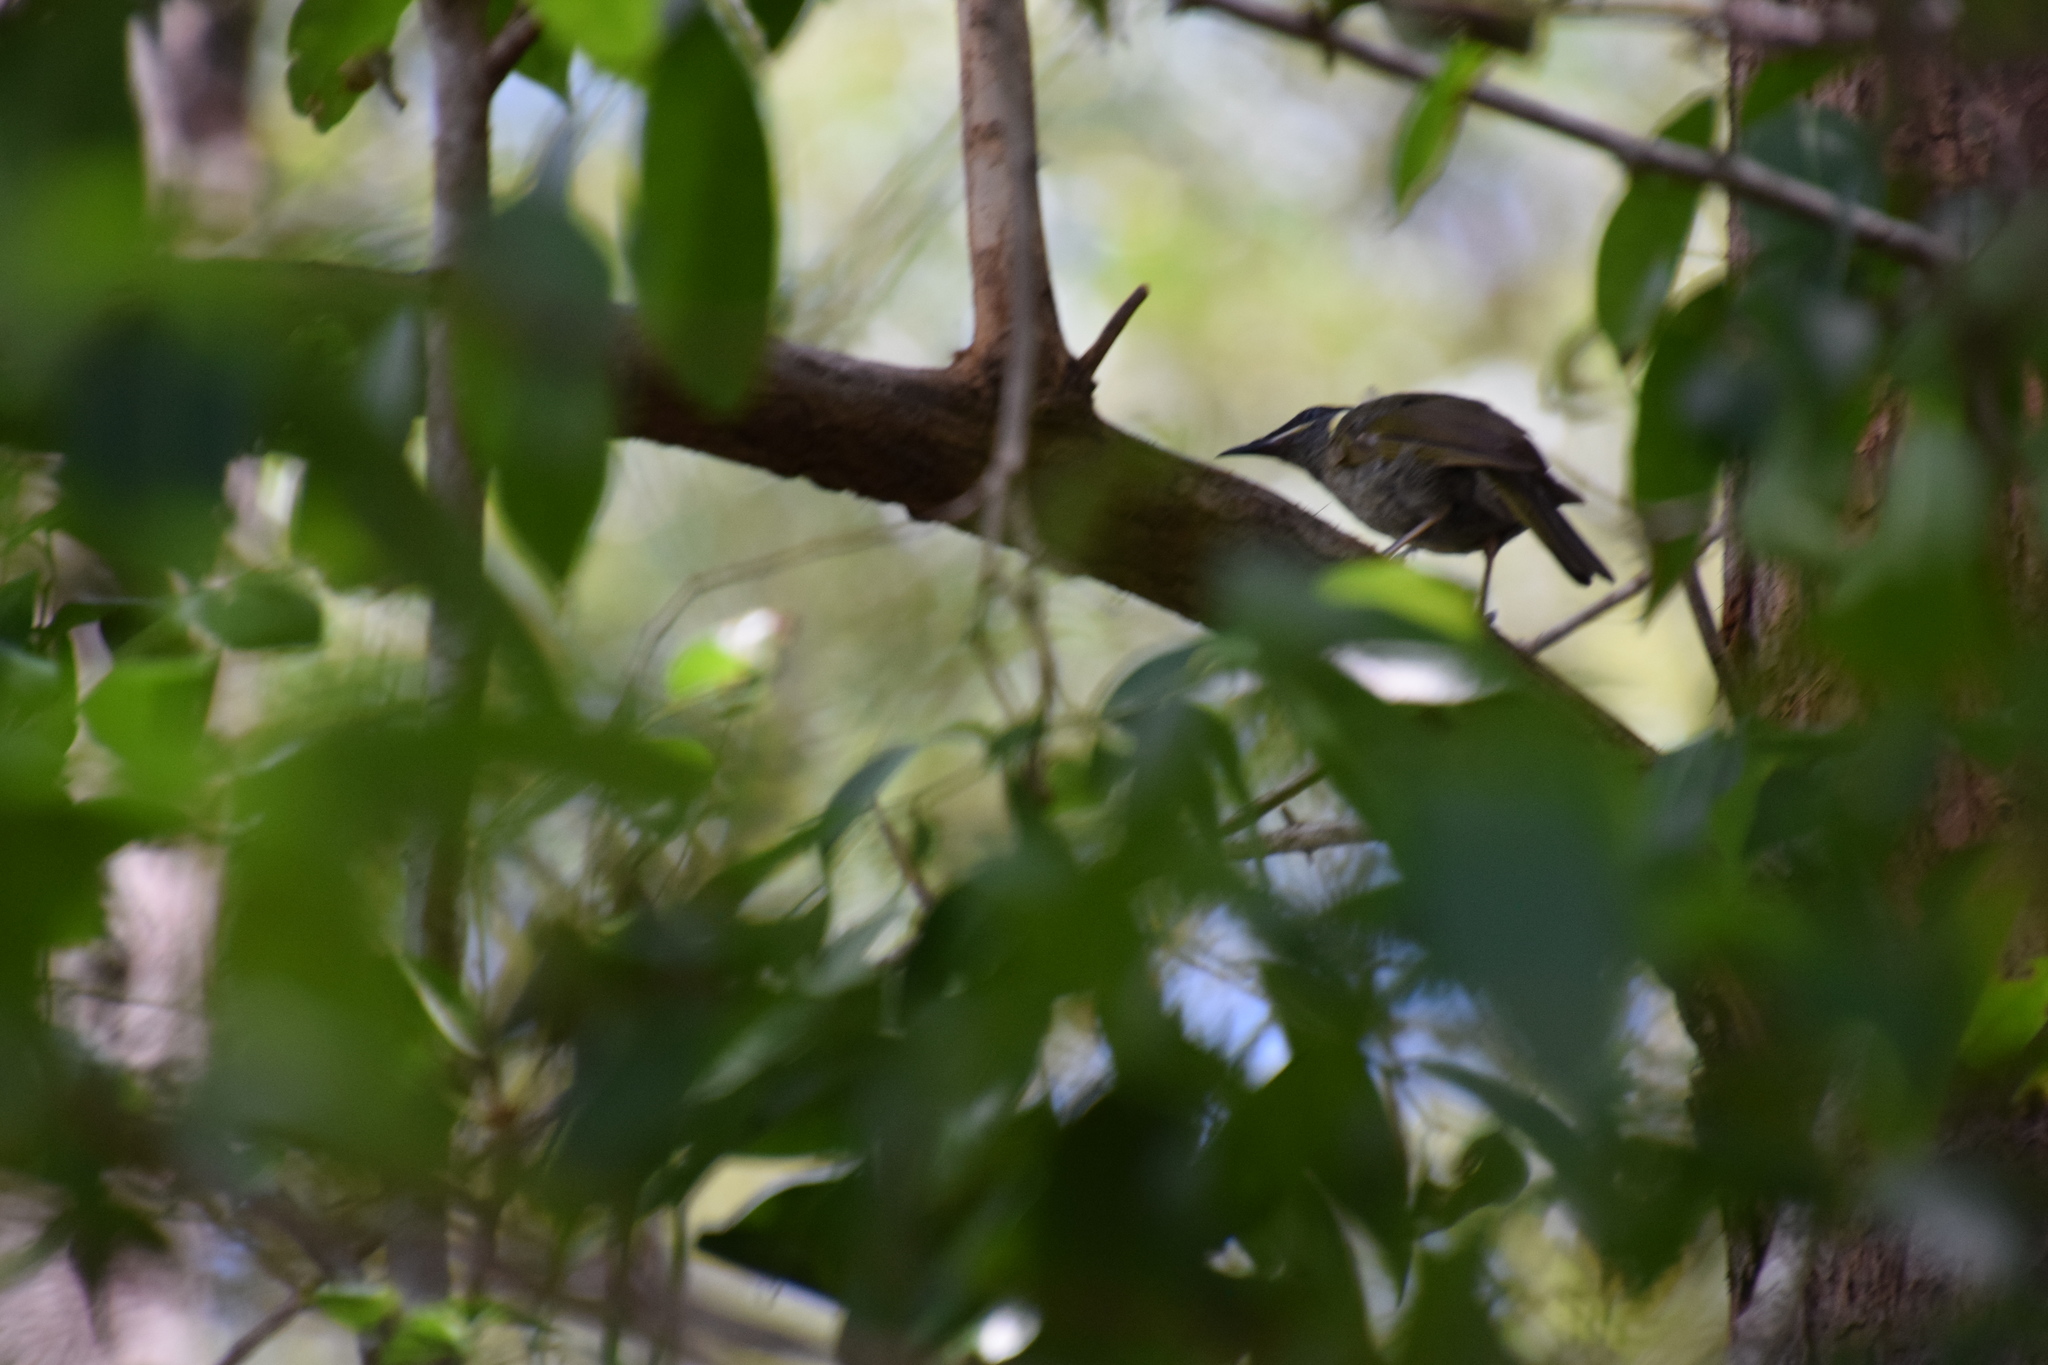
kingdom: Animalia
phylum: Chordata
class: Aves
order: Passeriformes
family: Meliphagidae
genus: Meliphaga
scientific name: Meliphaga lewinii
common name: Lewin's honeyeater
